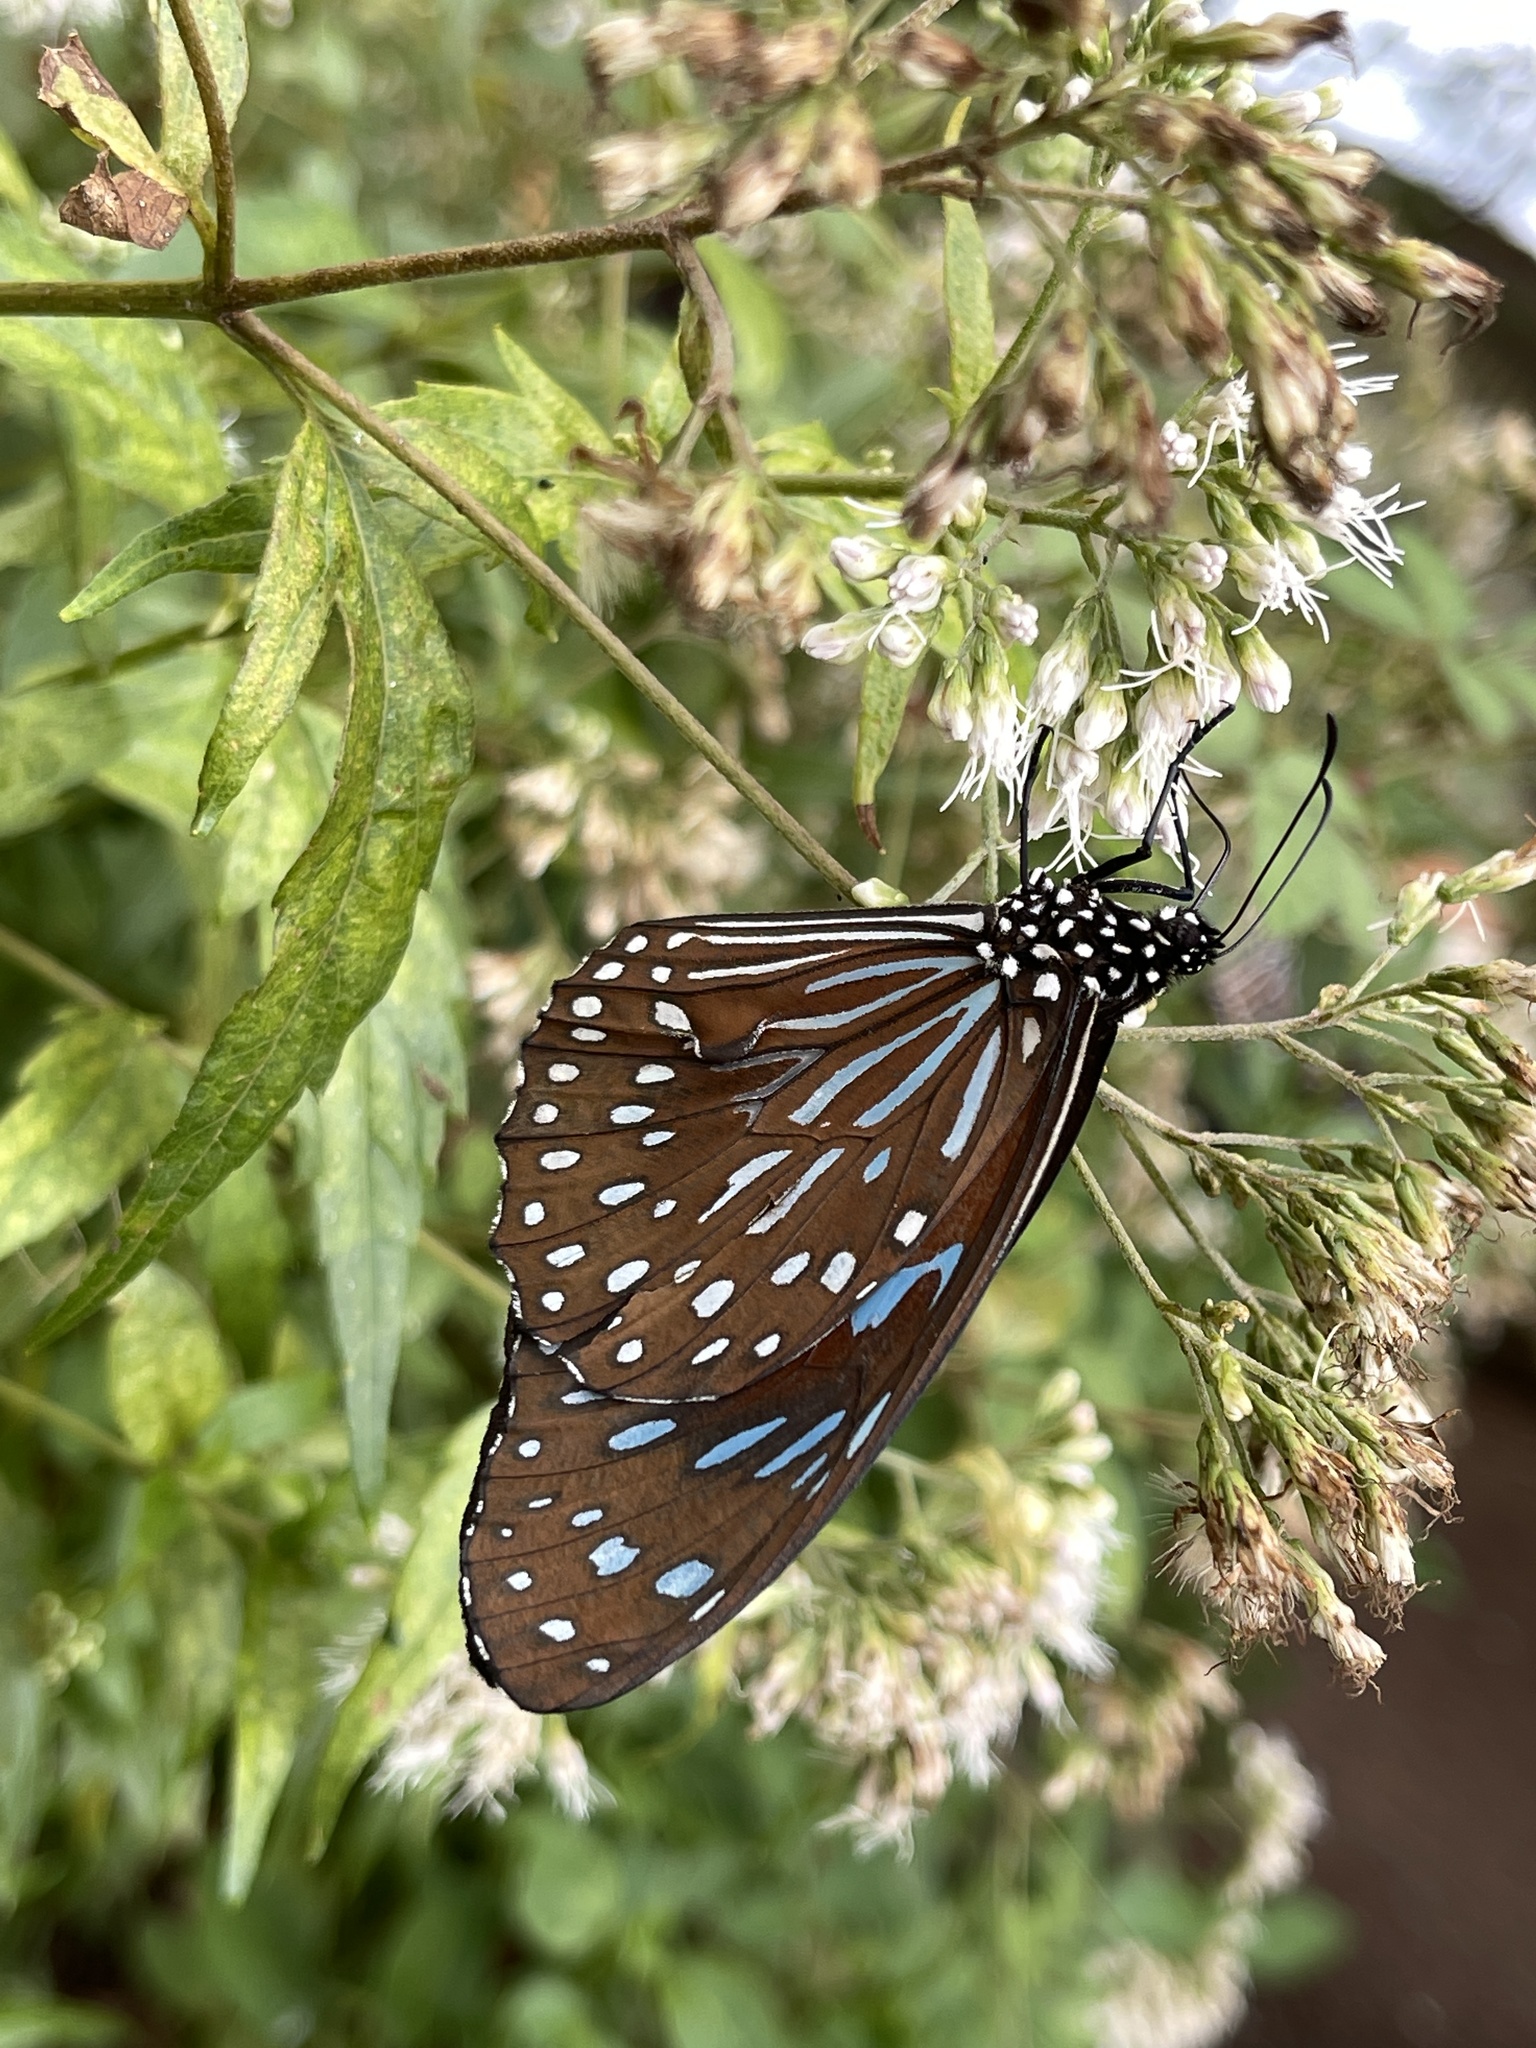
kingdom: Animalia
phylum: Arthropoda
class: Insecta
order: Lepidoptera
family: Nymphalidae
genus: Tirumala
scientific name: Tirumala limniace
